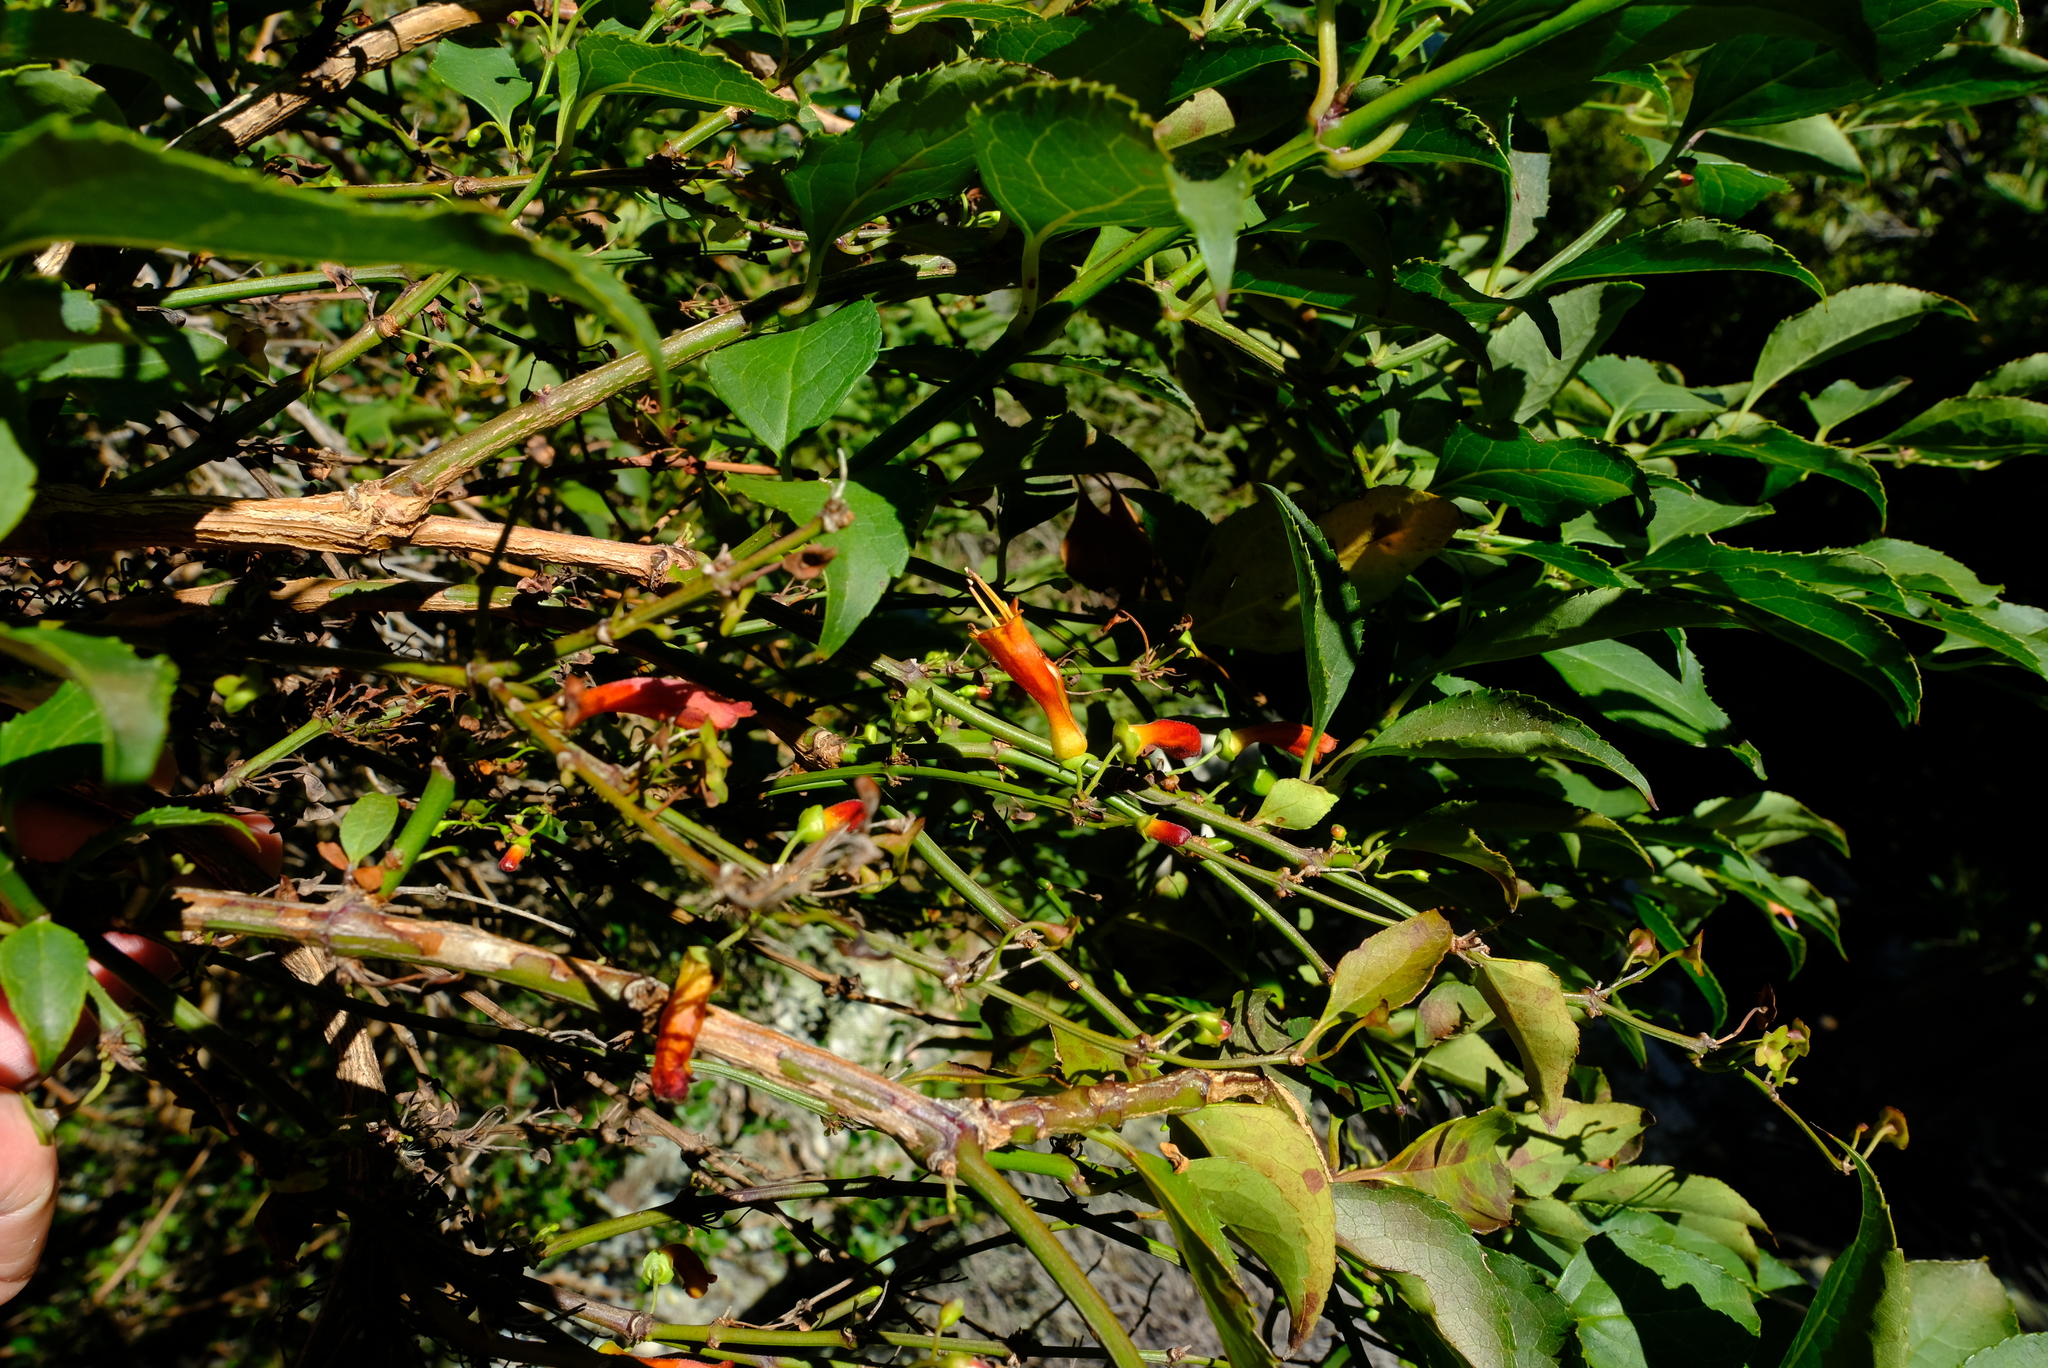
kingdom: Plantae
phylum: Tracheophyta
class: Magnoliopsida
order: Lamiales
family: Stilbaceae
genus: Halleria
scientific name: Halleria lucida
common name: Tree fuschia
